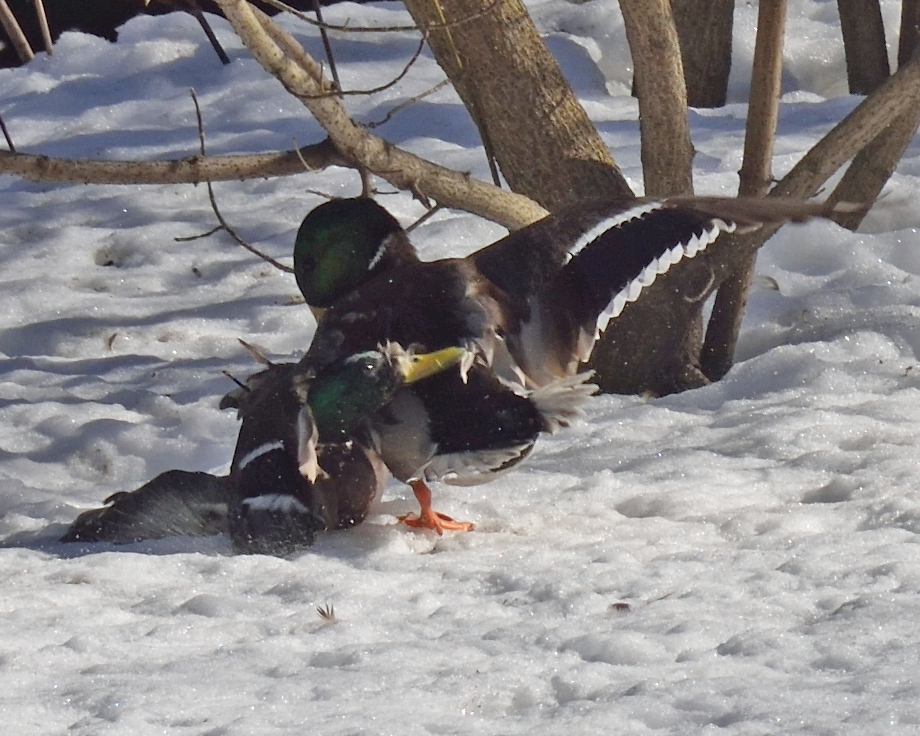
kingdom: Animalia
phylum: Chordata
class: Aves
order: Anseriformes
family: Anatidae
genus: Anas
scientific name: Anas platyrhynchos
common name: Mallard
